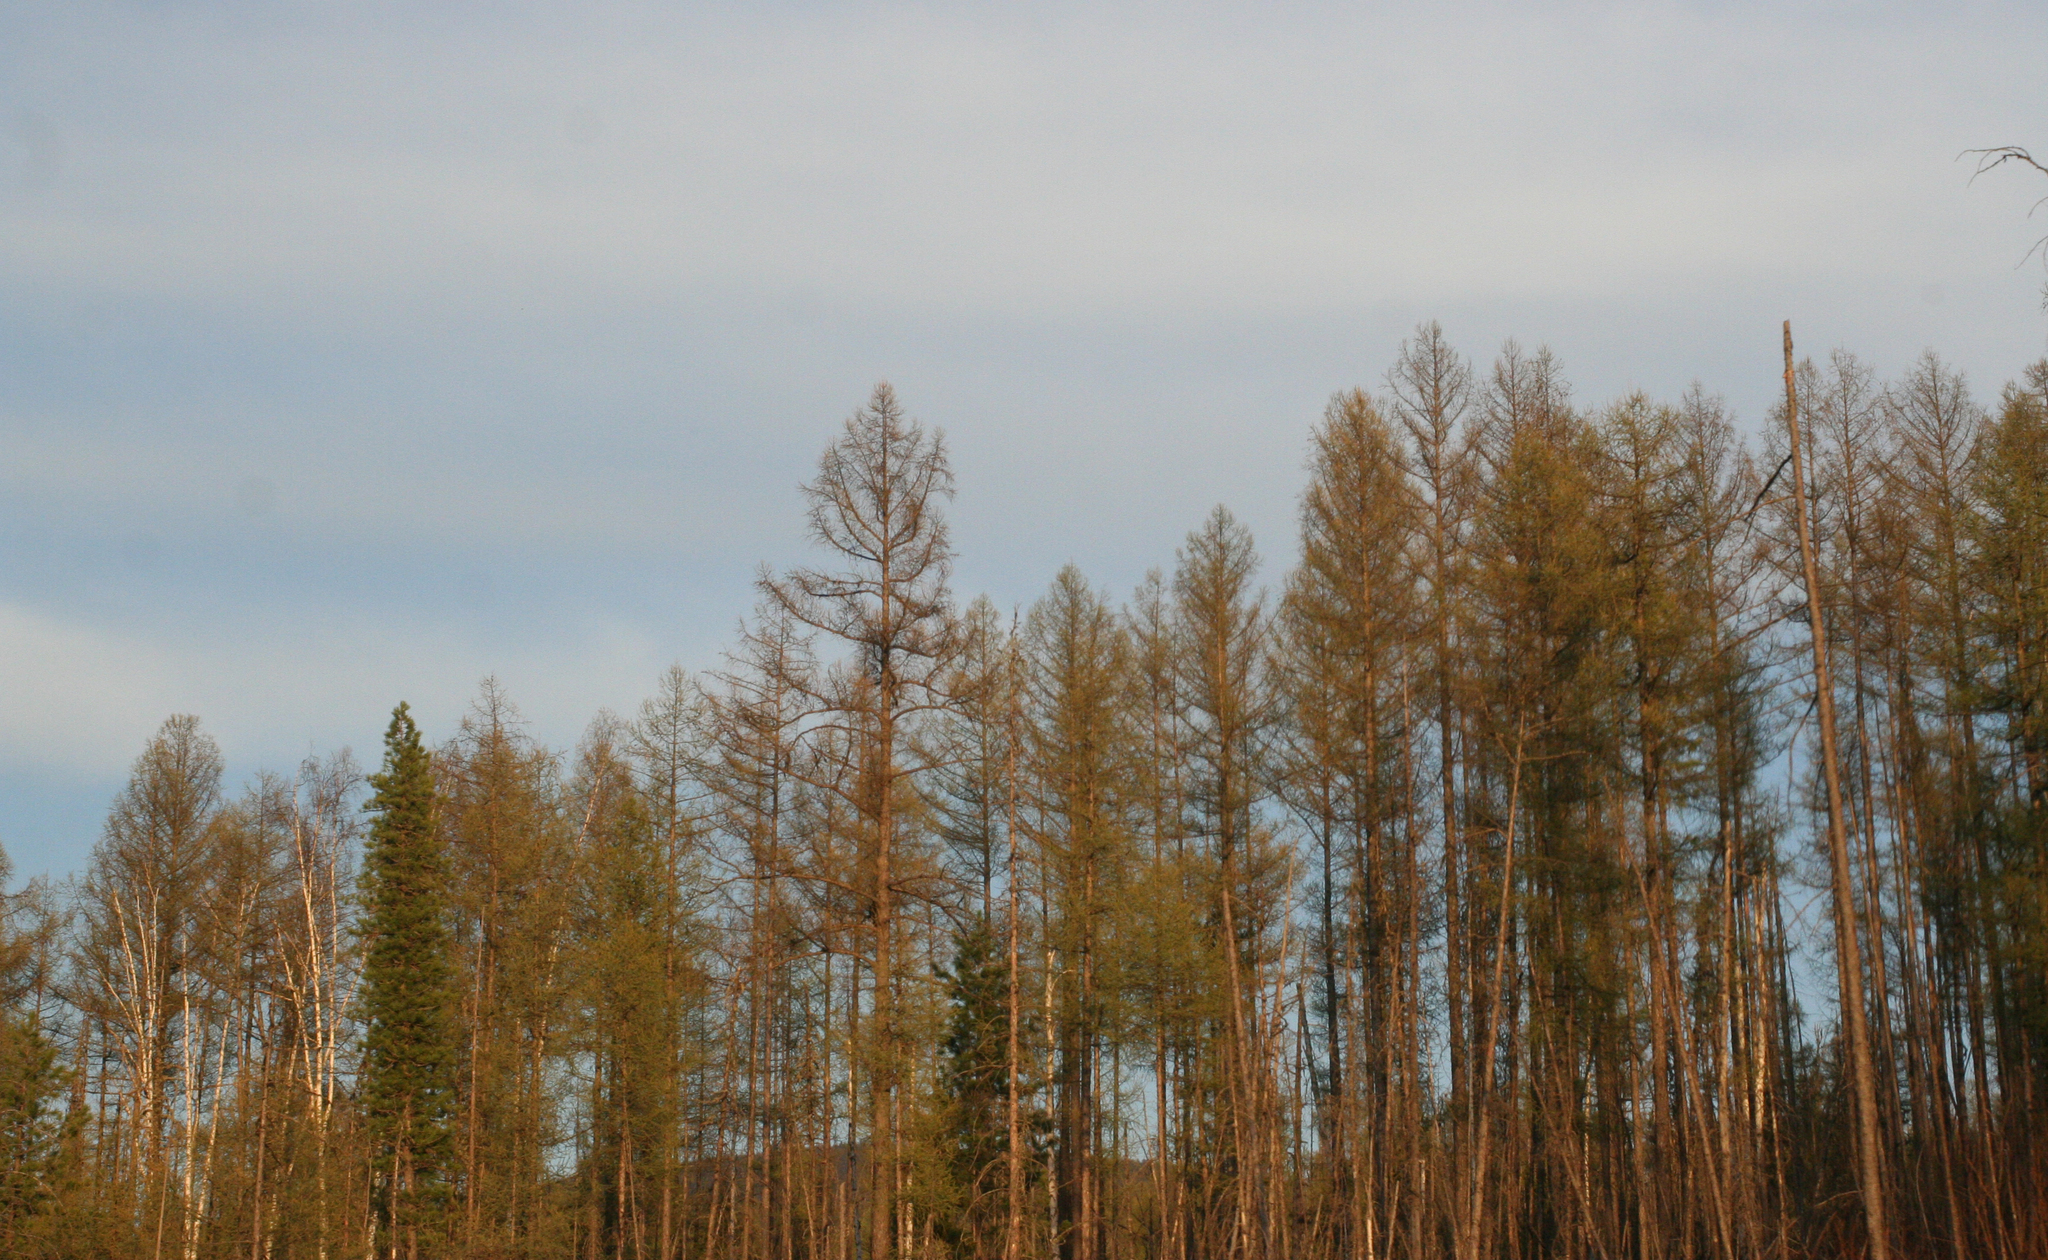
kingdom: Plantae
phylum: Tracheophyta
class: Pinopsida
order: Pinales
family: Pinaceae
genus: Larix
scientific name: Larix sibirica
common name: Siberian larch
